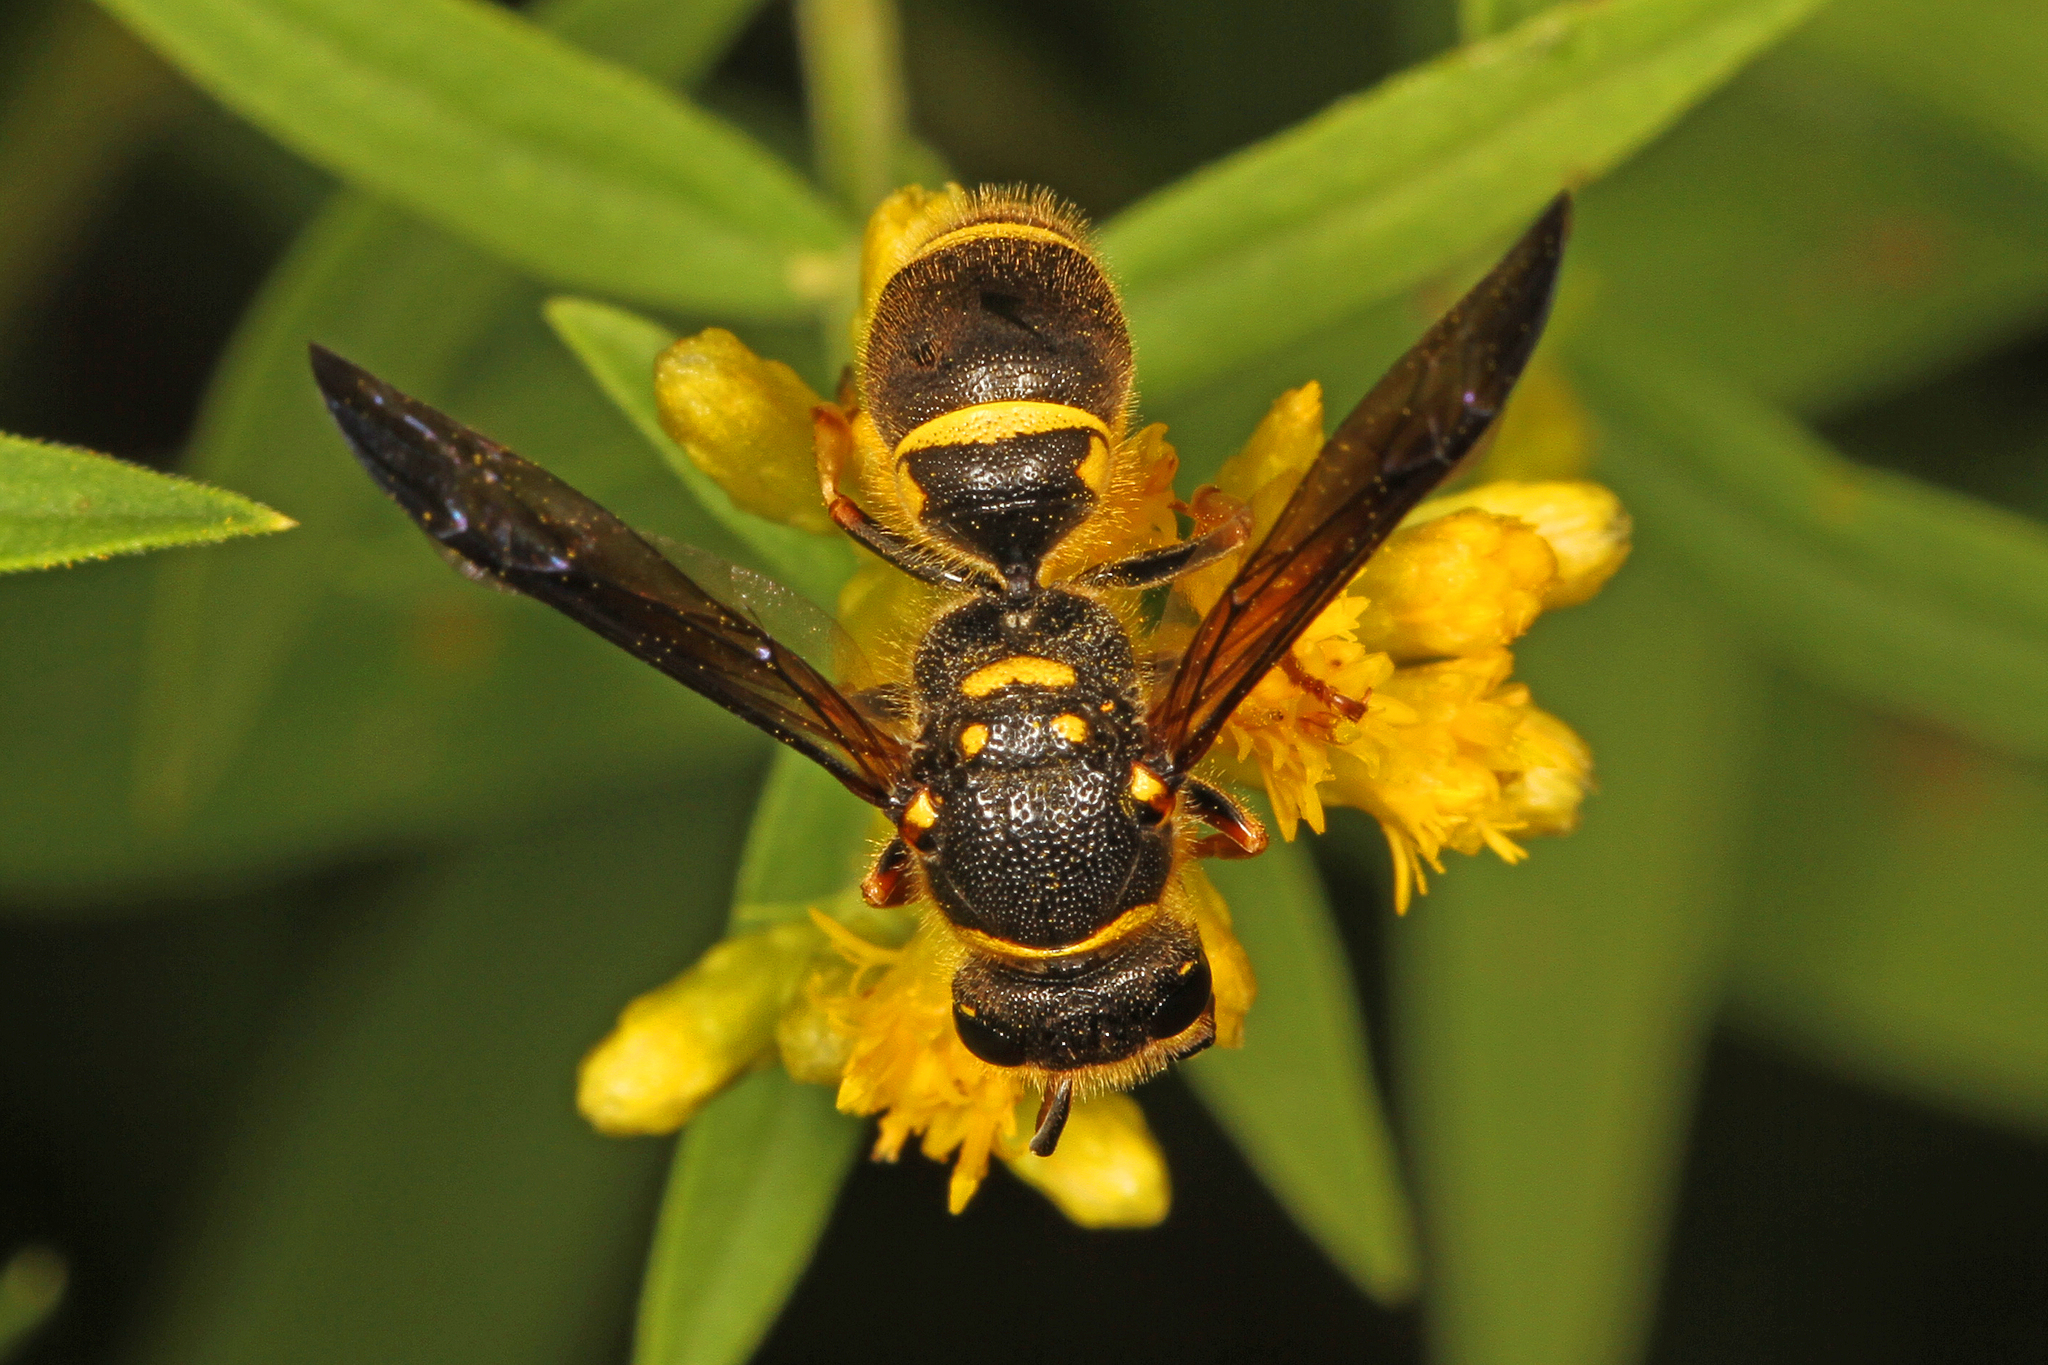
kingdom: Animalia
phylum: Arthropoda
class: Insecta
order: Hymenoptera
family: Vespidae
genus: Ancistrocerus
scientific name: Ancistrocerus campestris
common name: Smiling mason wasp
